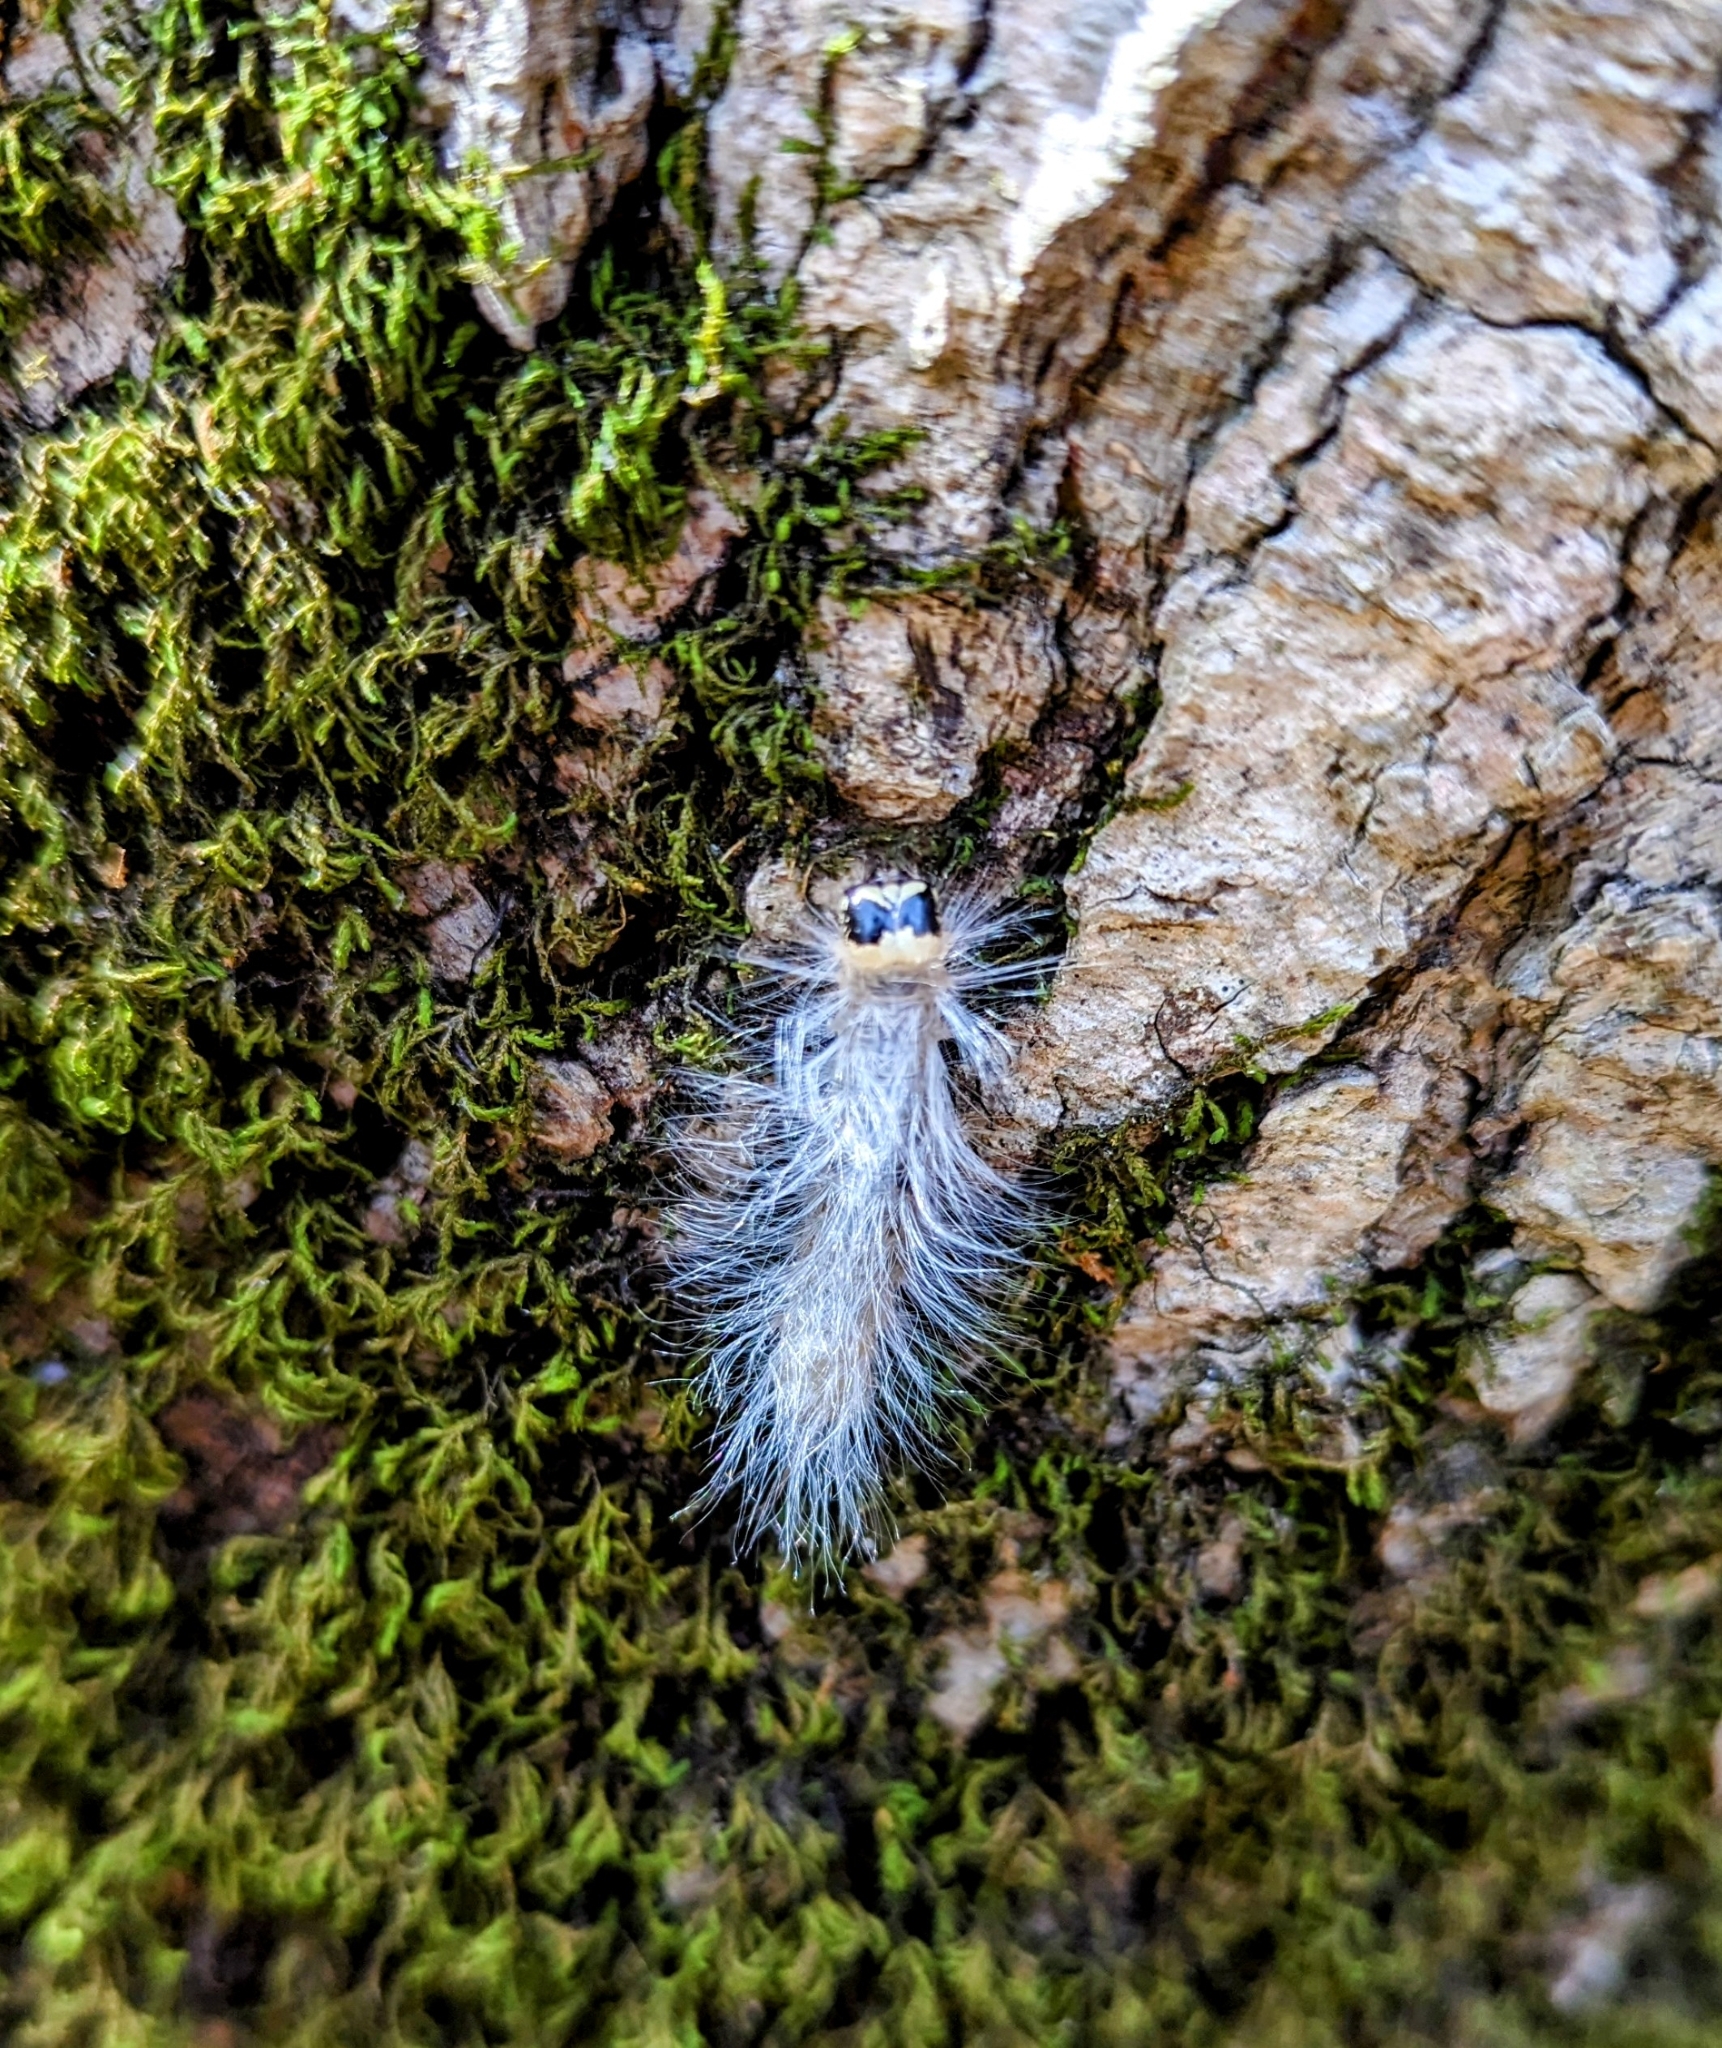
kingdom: Animalia
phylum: Arthropoda
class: Insecta
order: Lepidoptera
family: Noctuidae
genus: Charadra
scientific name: Charadra deridens
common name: Marbled tuffet
